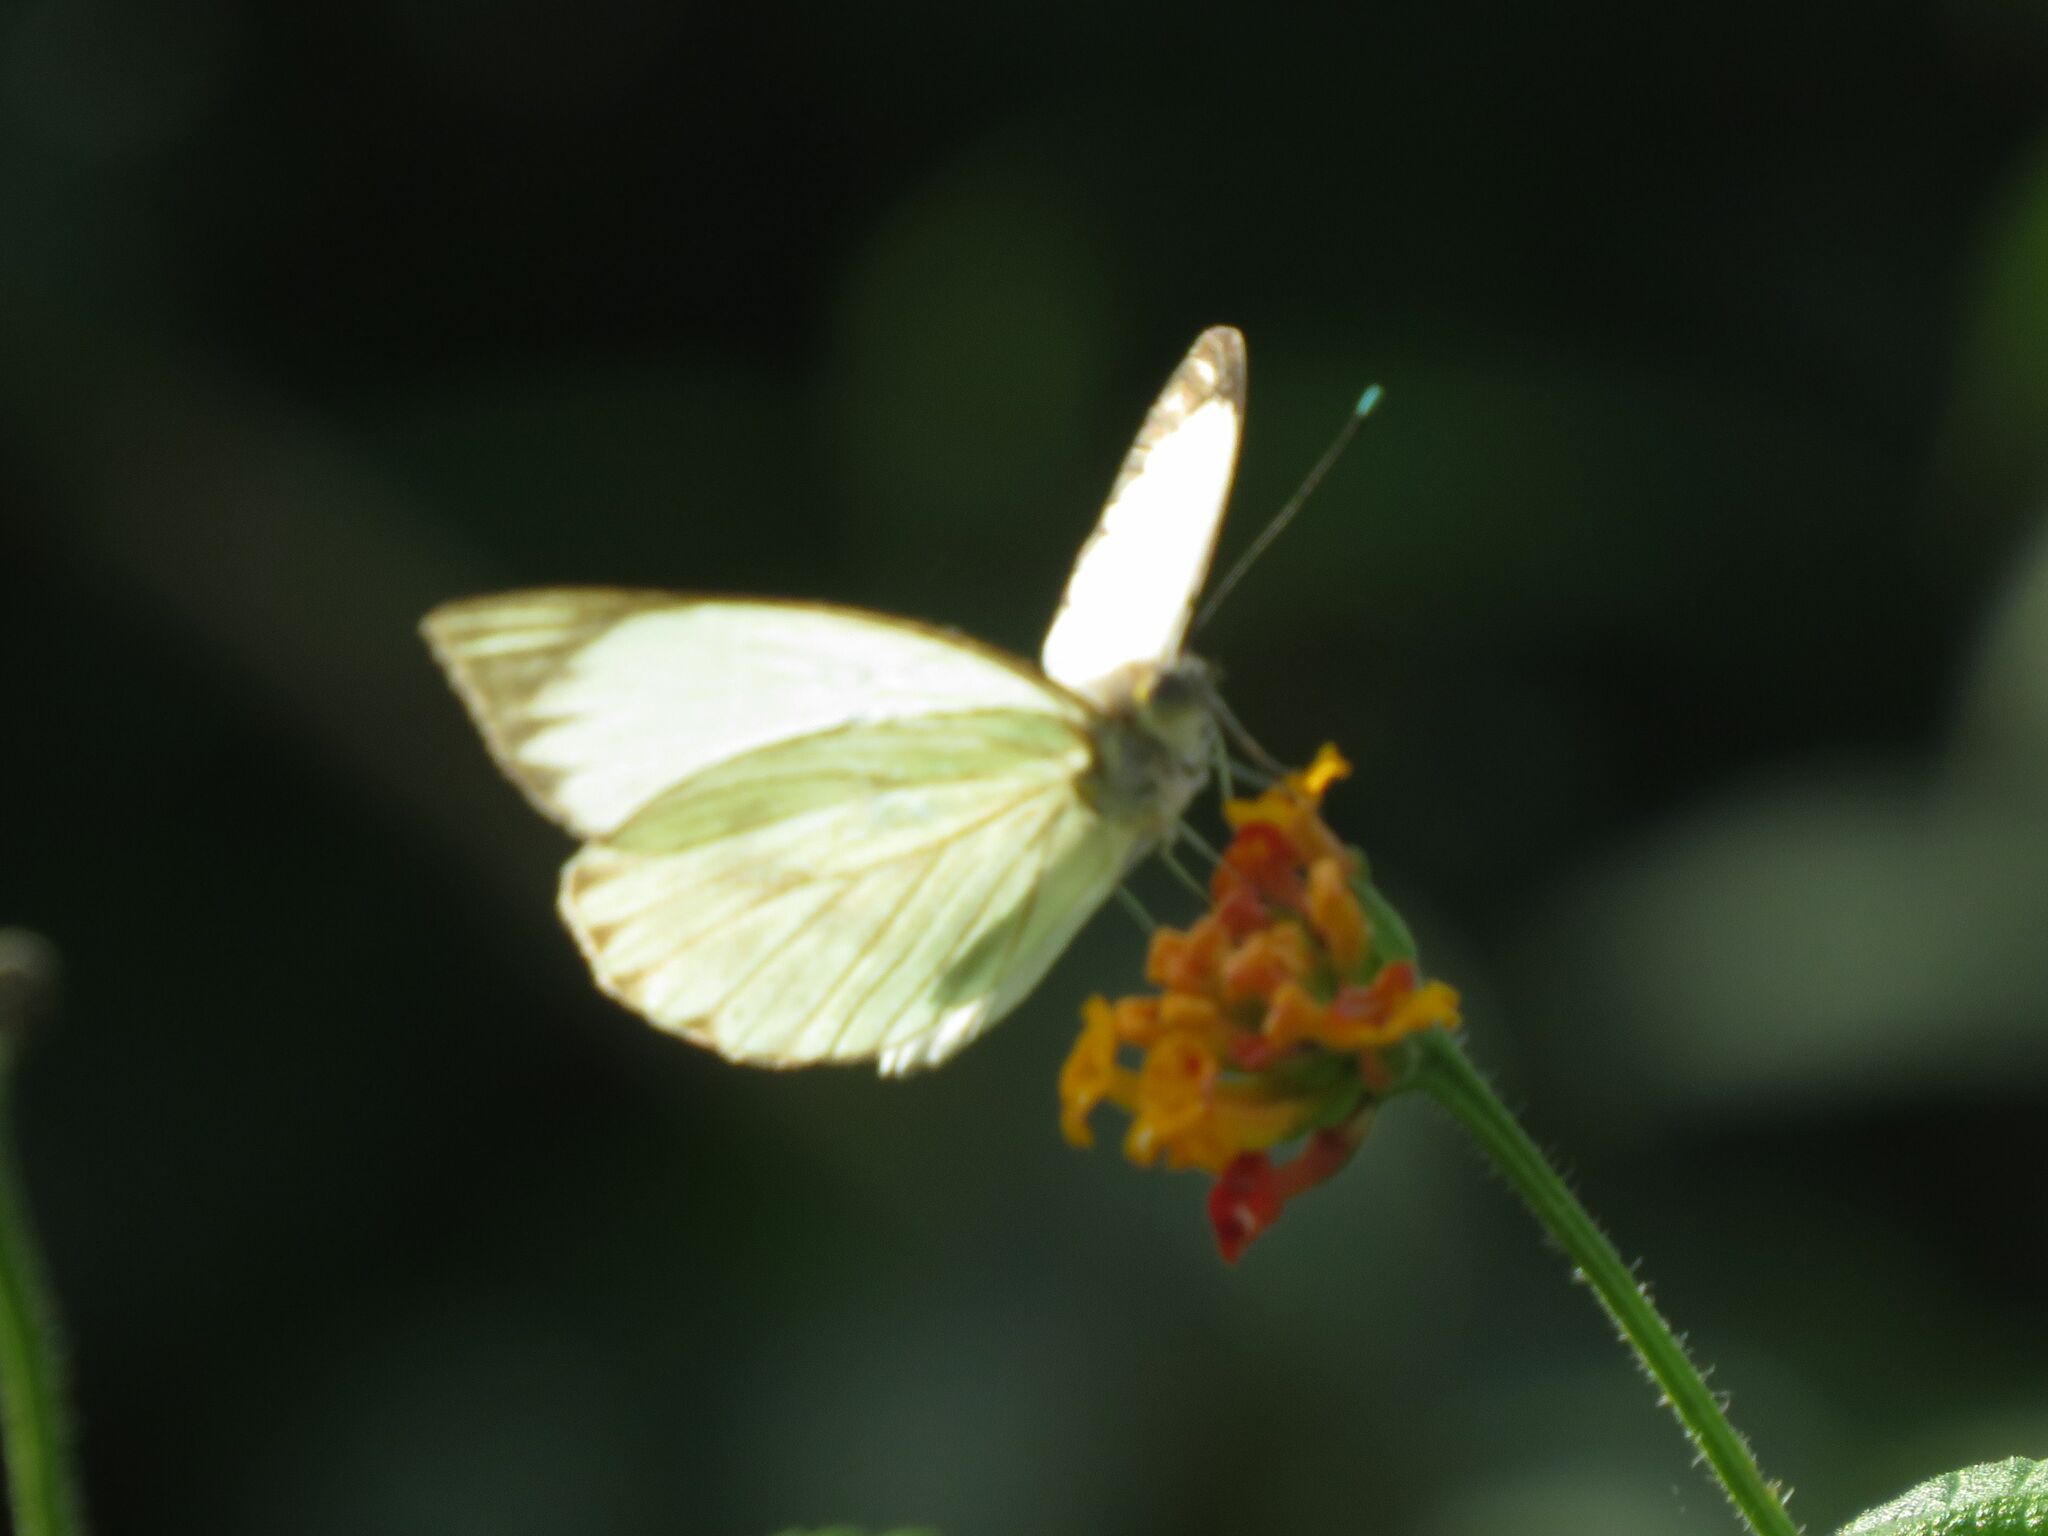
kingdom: Animalia
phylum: Arthropoda
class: Insecta
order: Lepidoptera
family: Pieridae
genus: Ascia
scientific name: Ascia monuste
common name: Great southern white
